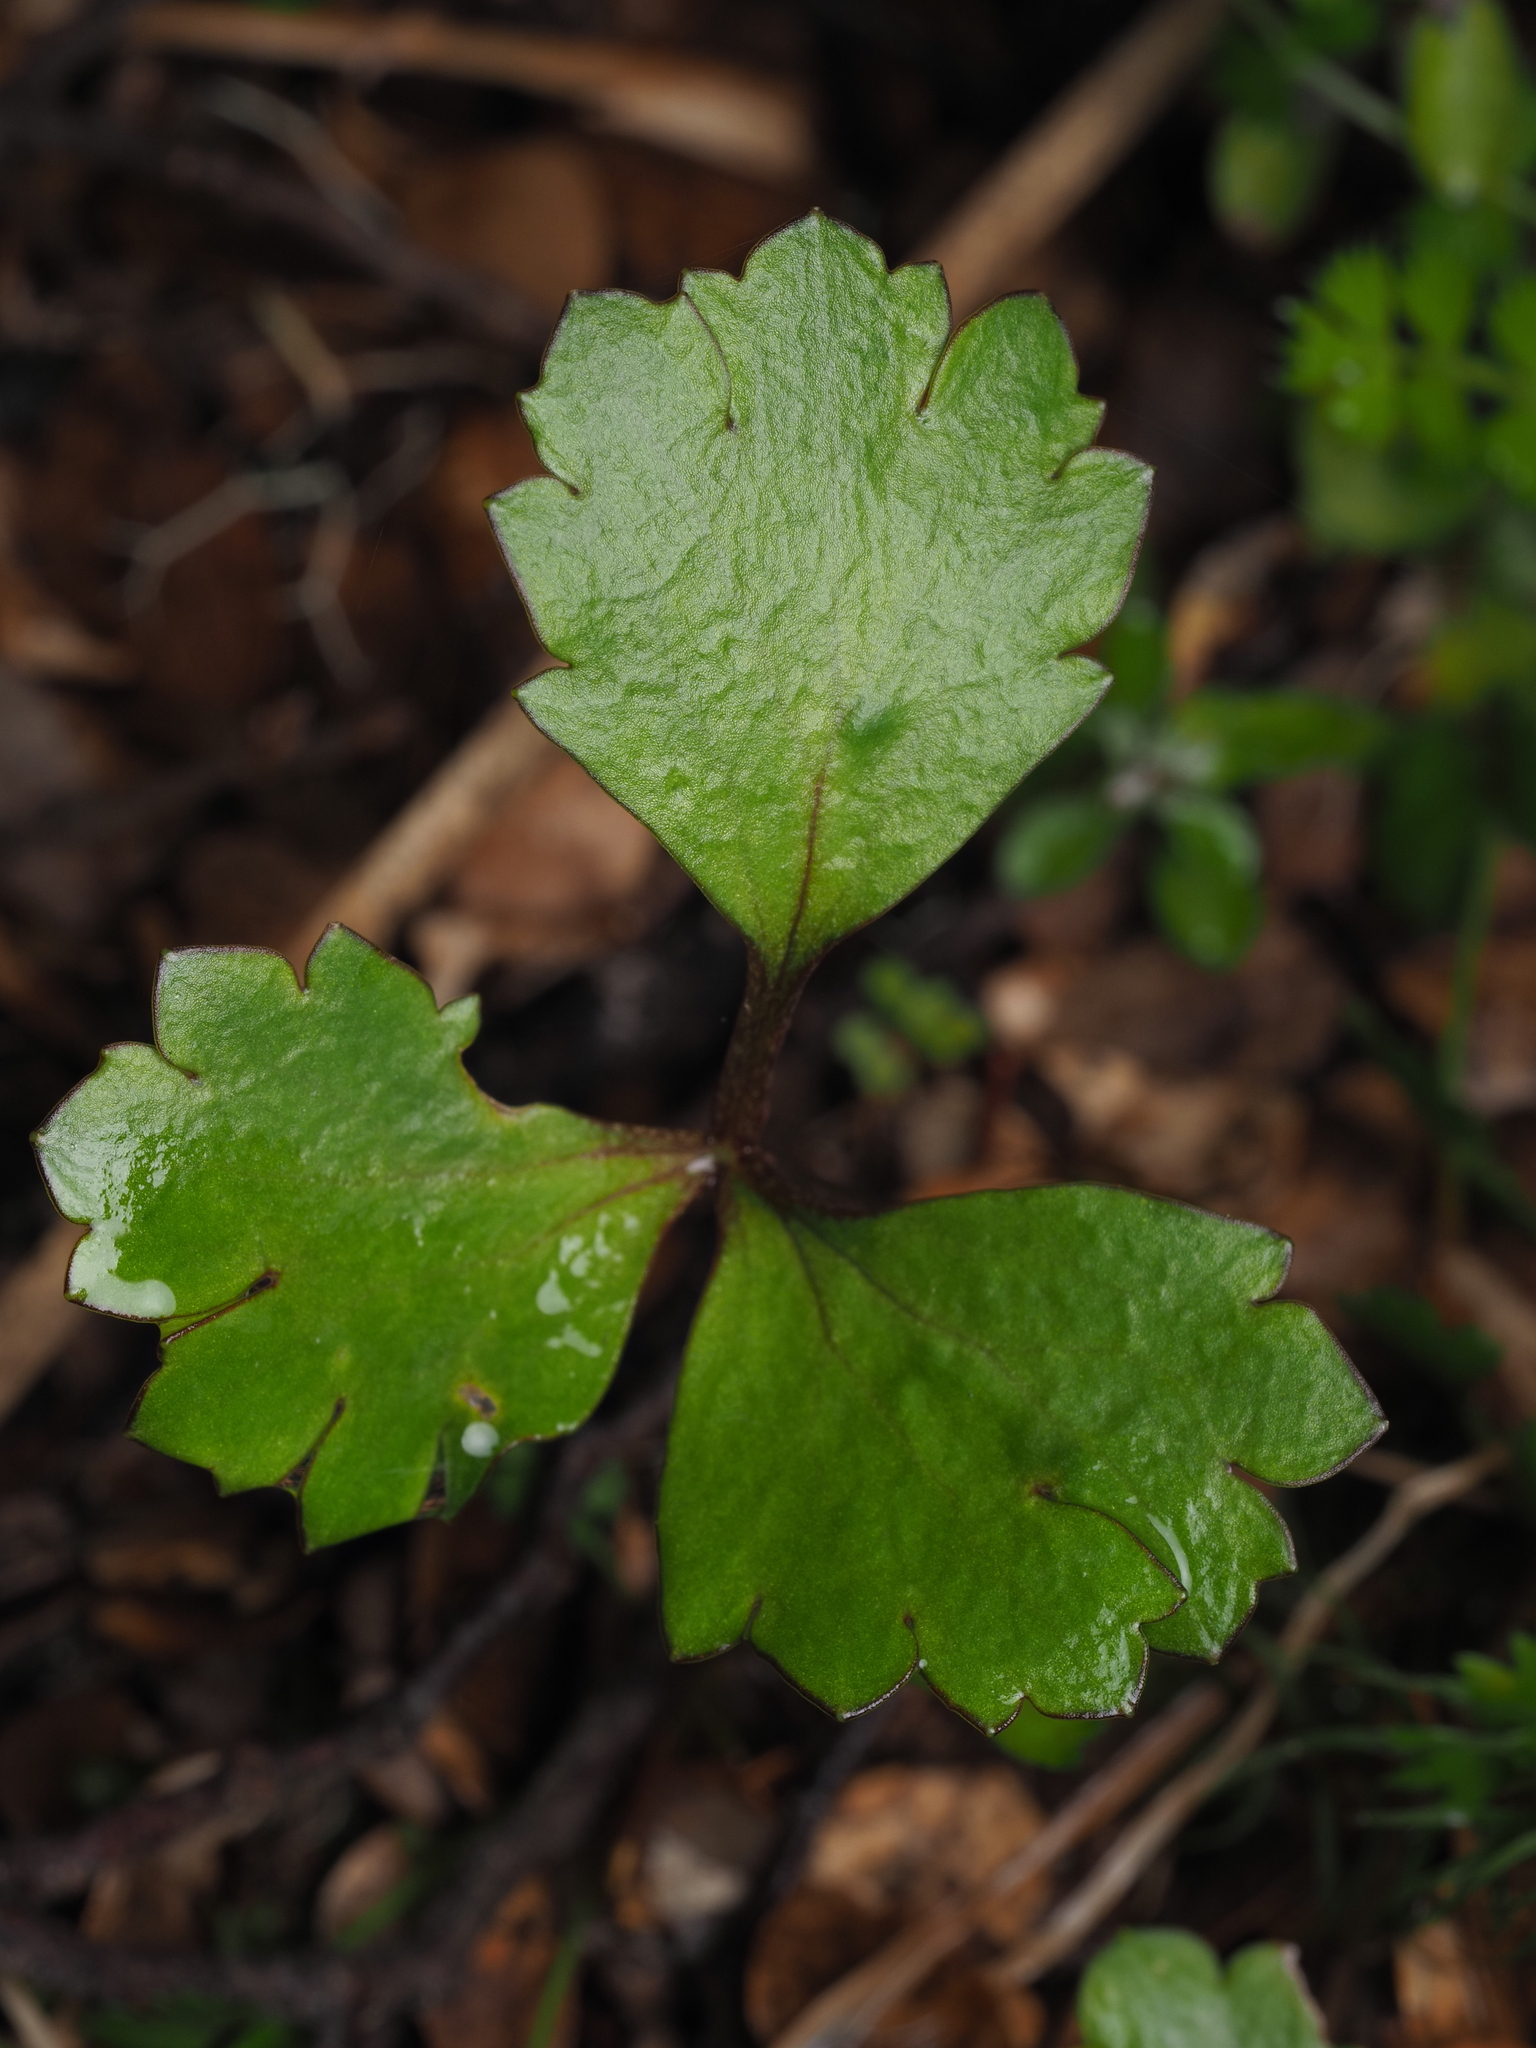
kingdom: Plantae
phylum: Tracheophyta
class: Magnoliopsida
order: Ranunculales
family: Ranunculaceae
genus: Ranunculus
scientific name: Ranunculus enysii
